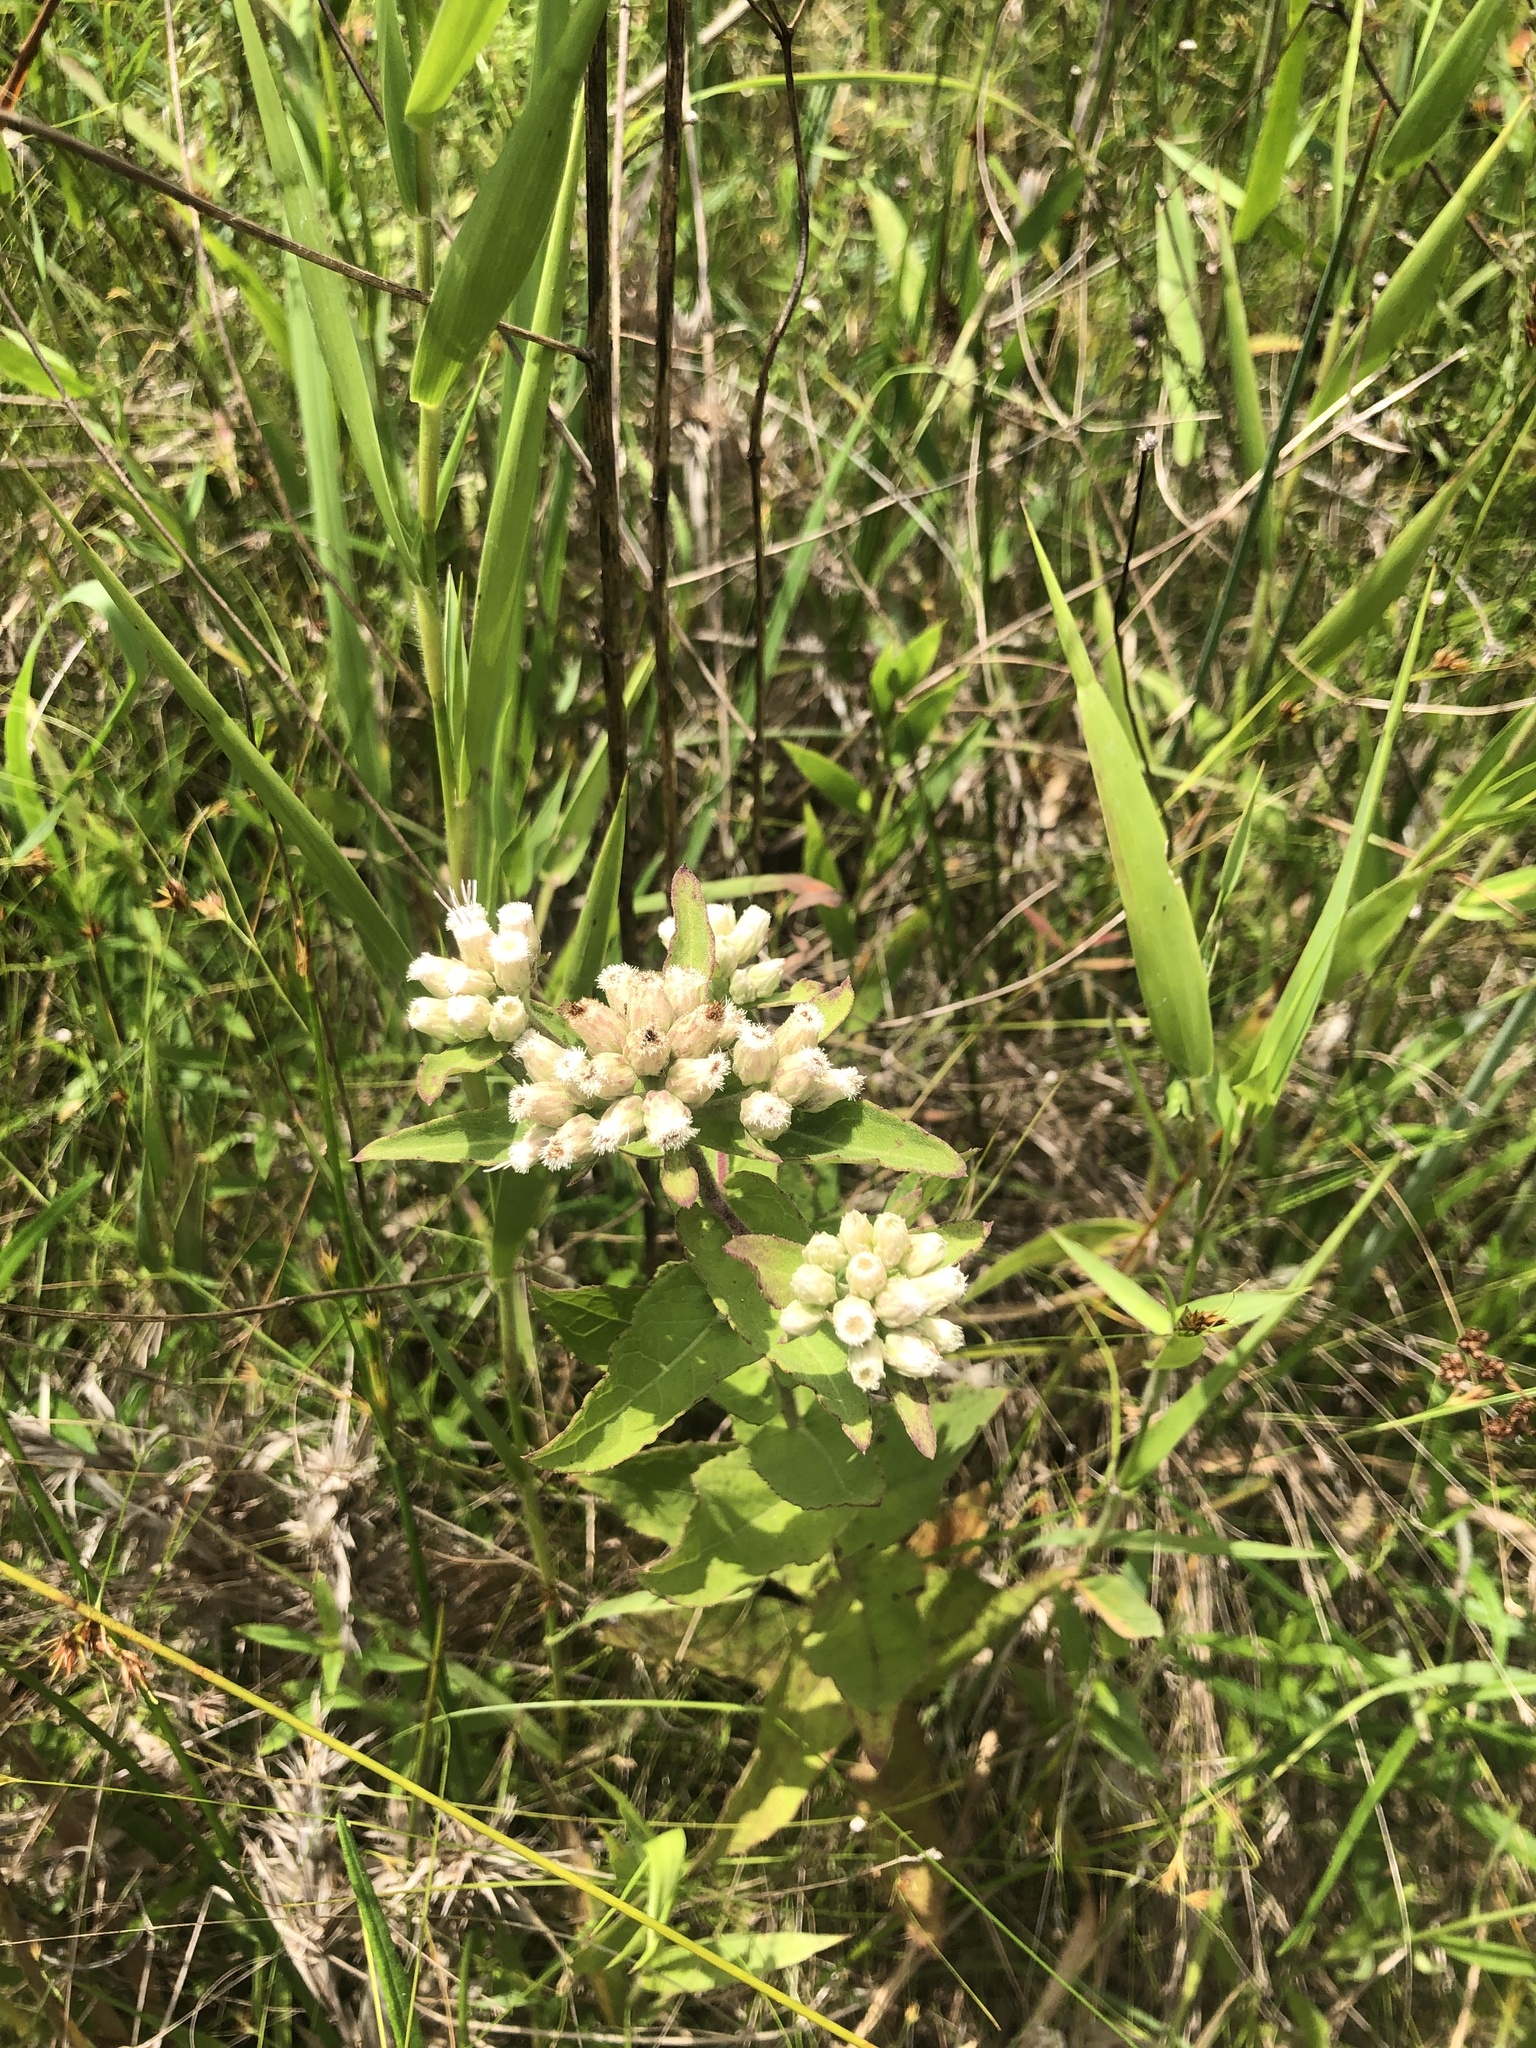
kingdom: Plantae
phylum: Tracheophyta
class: Magnoliopsida
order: Asterales
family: Asteraceae
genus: Pluchea
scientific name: Pluchea foetida
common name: Stinking camphorweed
